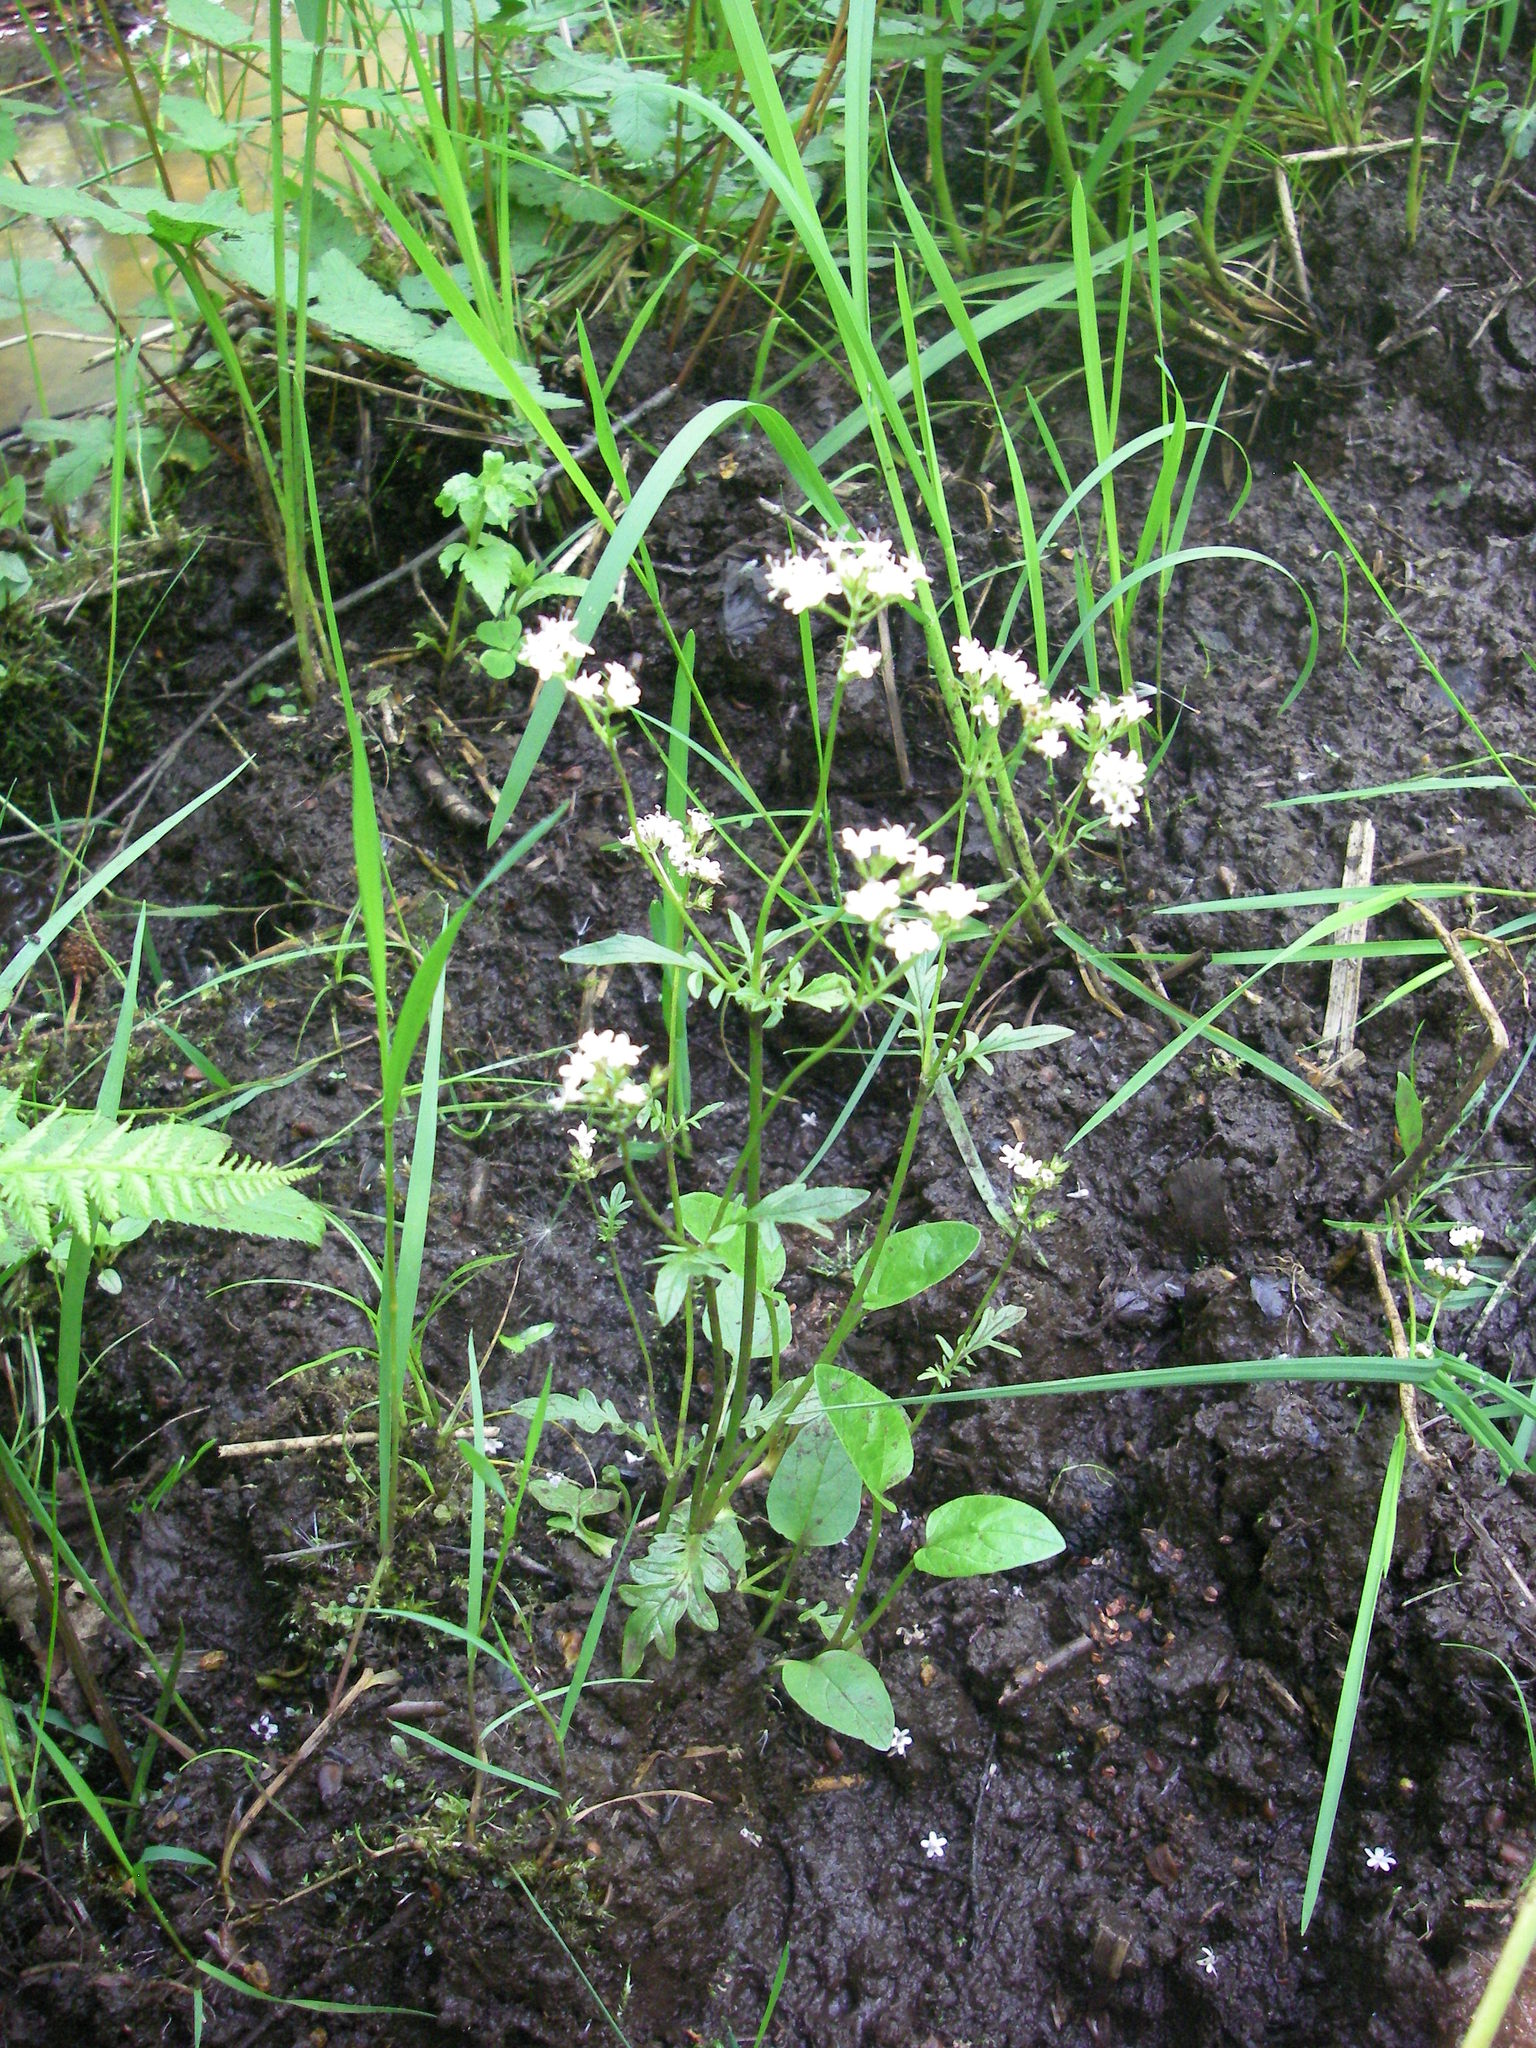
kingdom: Plantae
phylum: Tracheophyta
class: Magnoliopsida
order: Dipsacales
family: Caprifoliaceae
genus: Valeriana
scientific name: Valeriana dioica
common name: Marsh valerian
